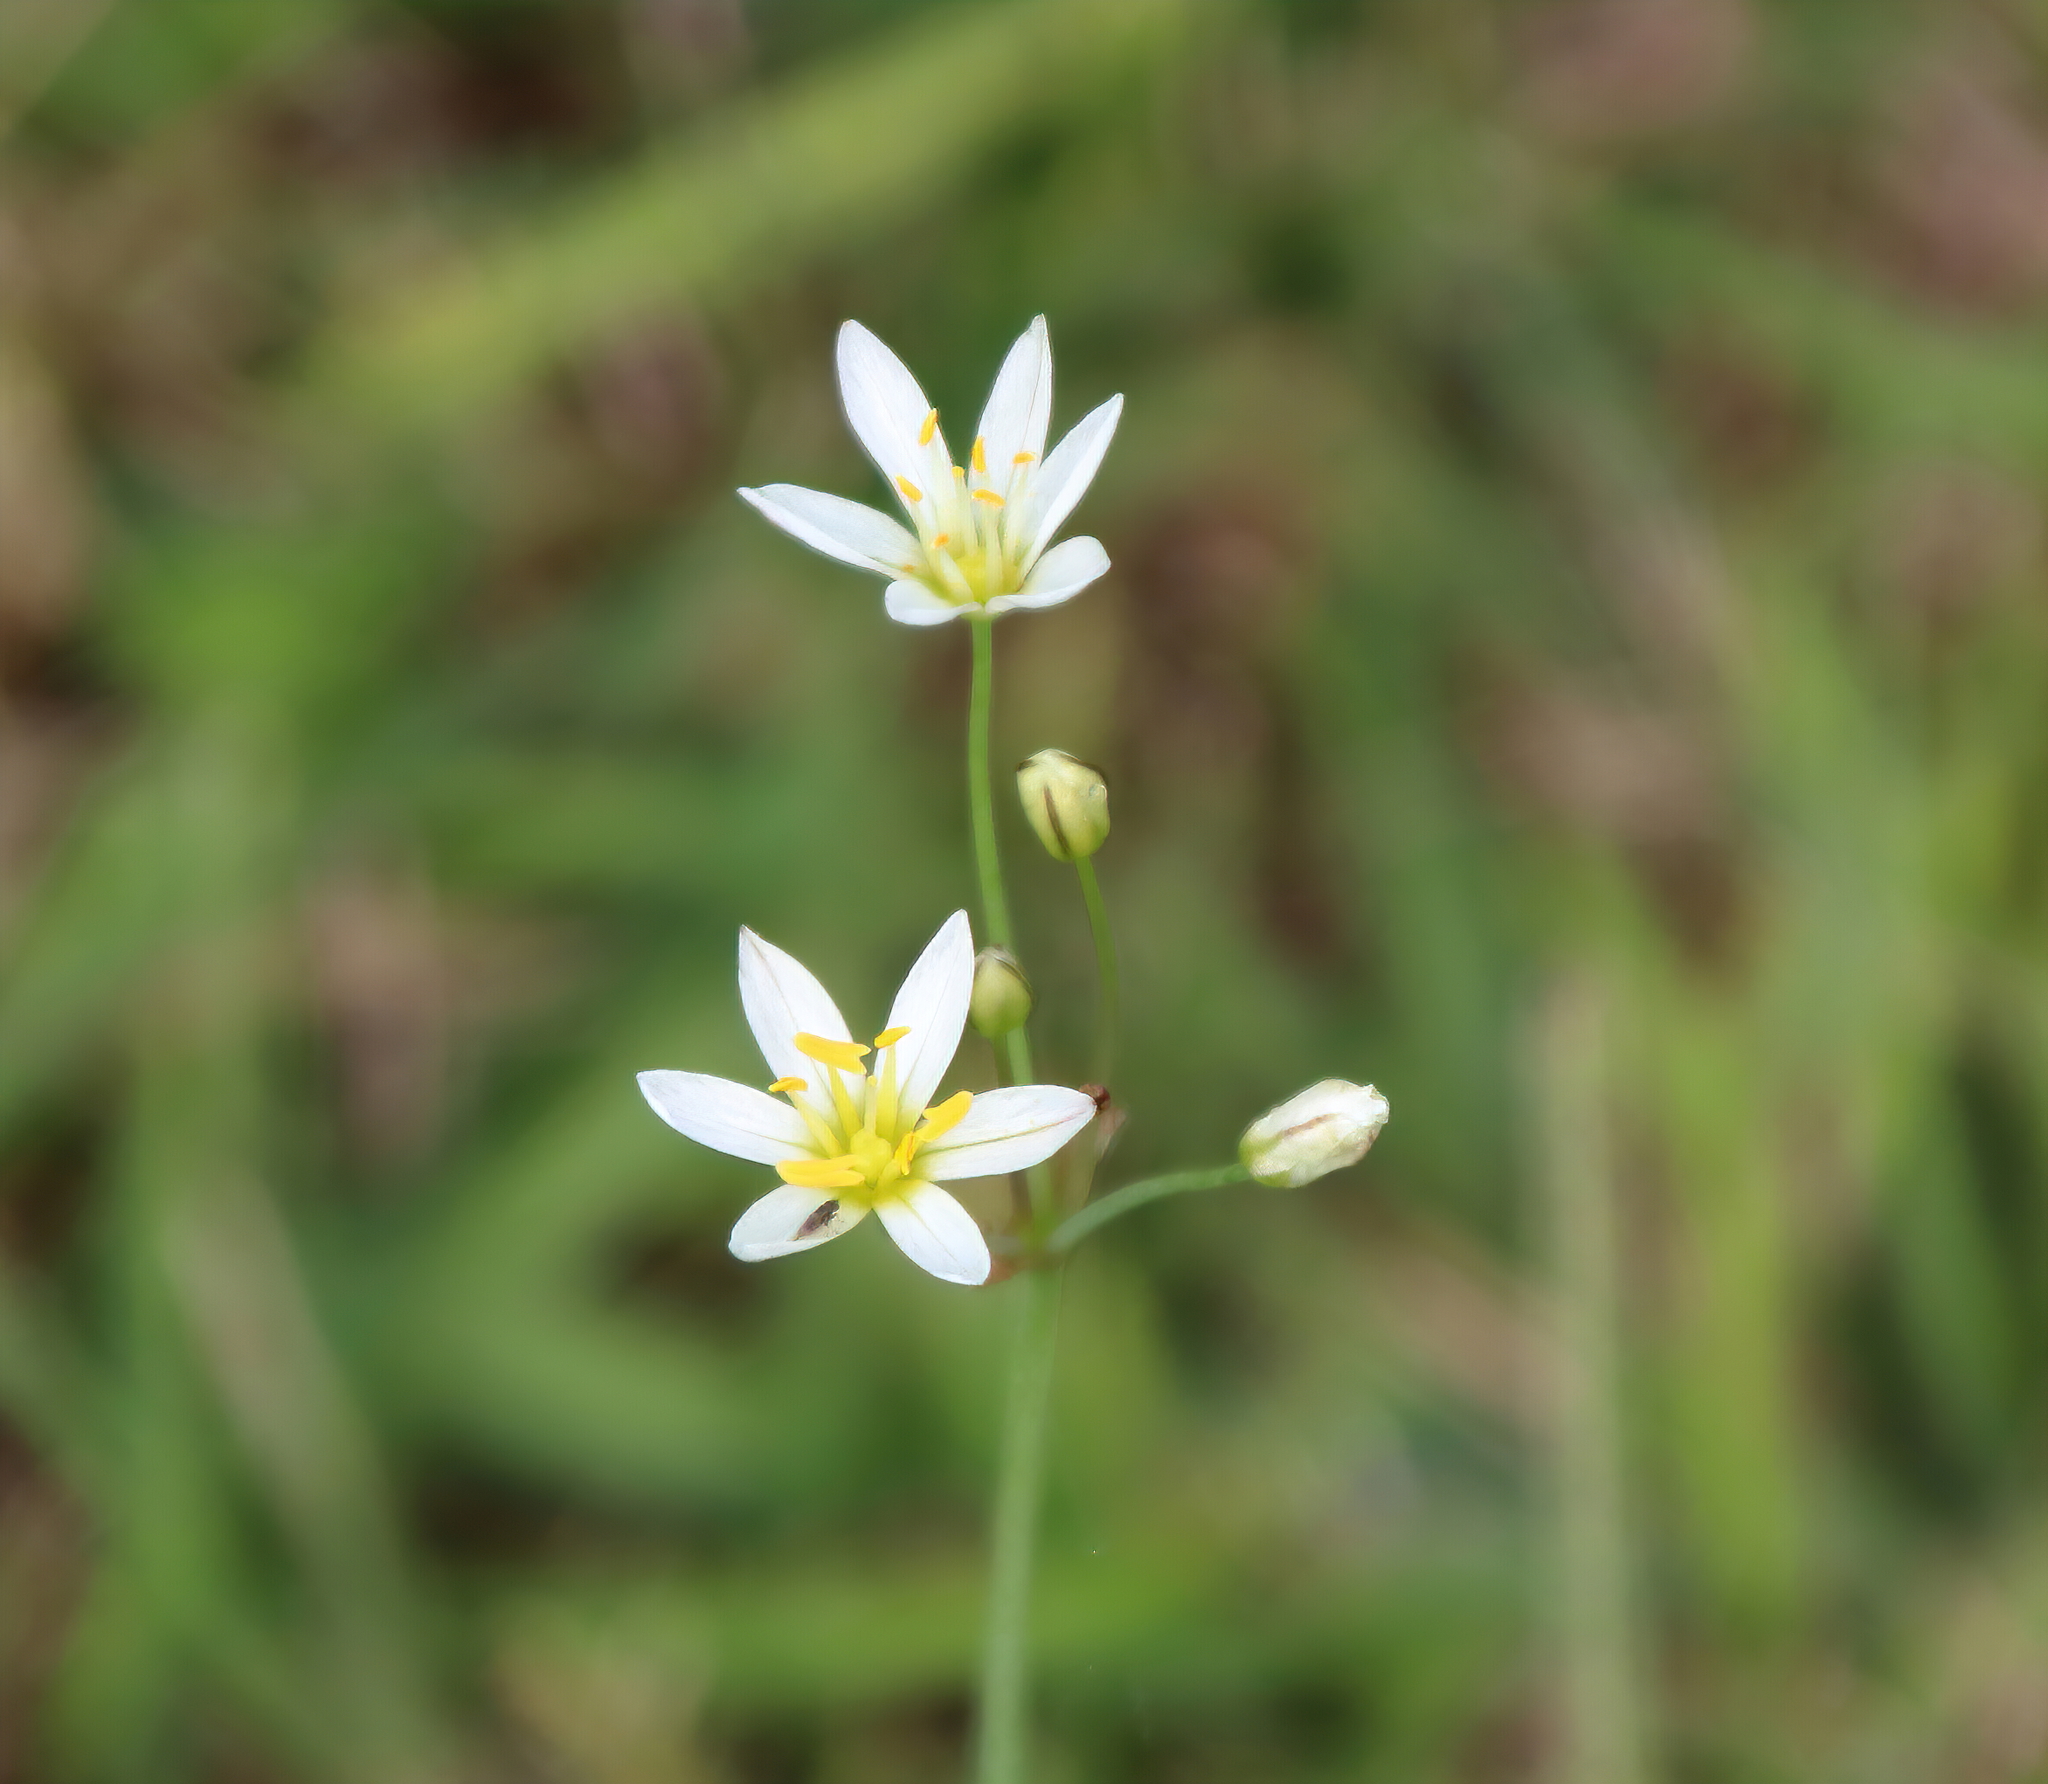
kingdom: Plantae
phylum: Tracheophyta
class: Liliopsida
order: Asparagales
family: Amaryllidaceae
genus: Nothoscordum
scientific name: Nothoscordum bivalve
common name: Crow-poison
